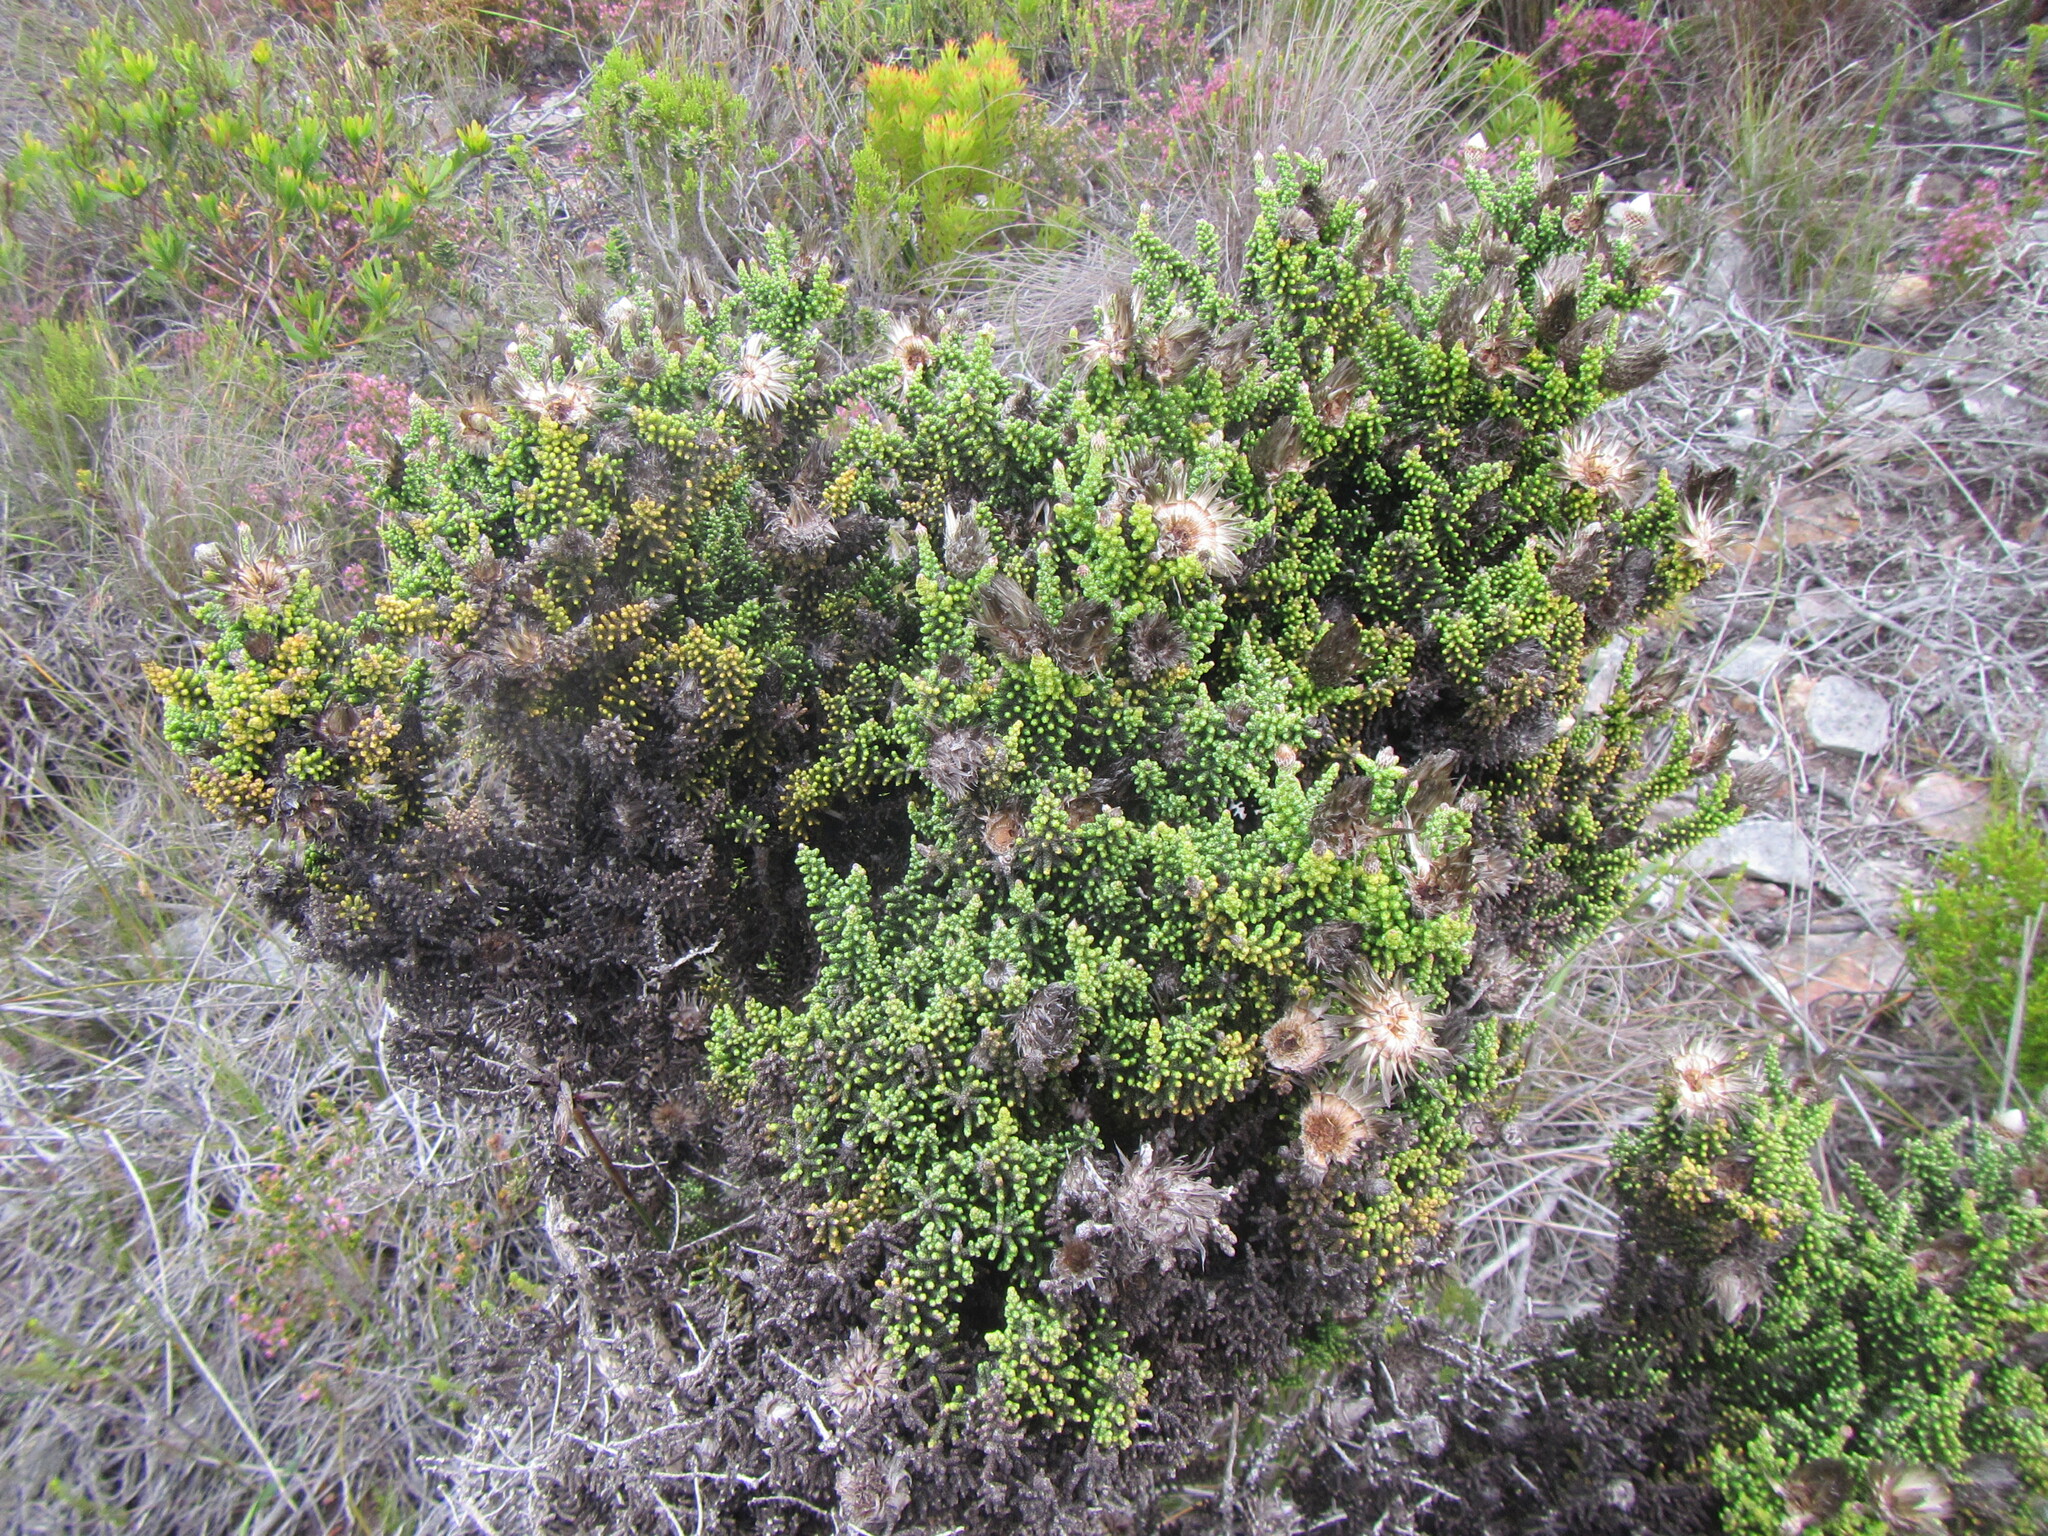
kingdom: Plantae
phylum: Tracheophyta
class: Magnoliopsida
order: Asterales
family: Asteraceae
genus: Phaenocoma
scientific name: Phaenocoma prolifera
